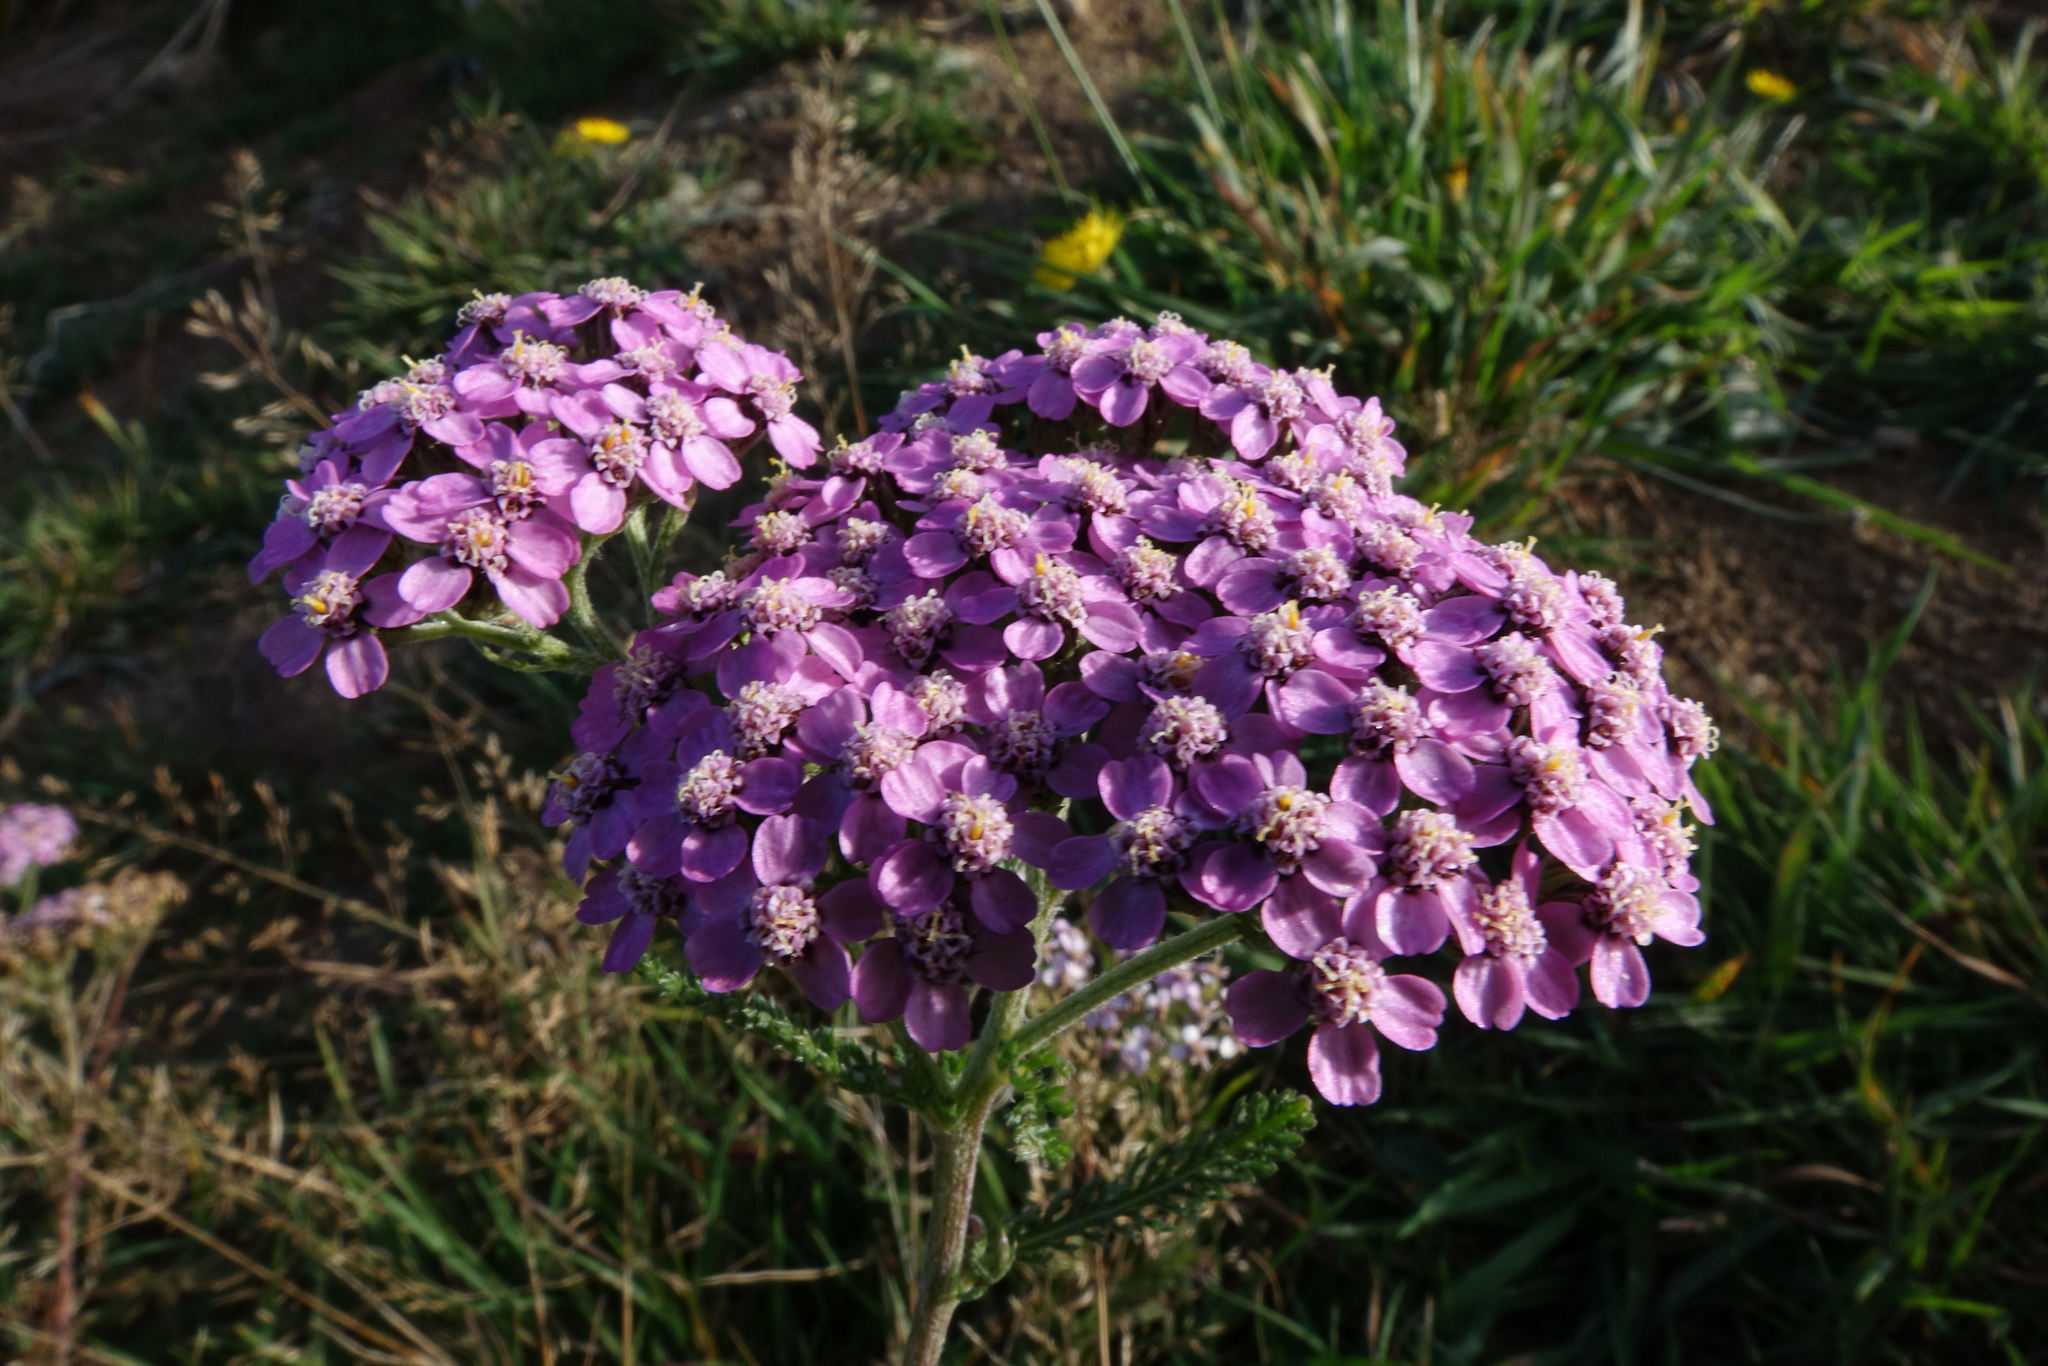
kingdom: Plantae
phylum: Tracheophyta
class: Magnoliopsida
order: Asterales
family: Asteraceae
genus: Achillea
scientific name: Achillea millefolium
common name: Yarrow
